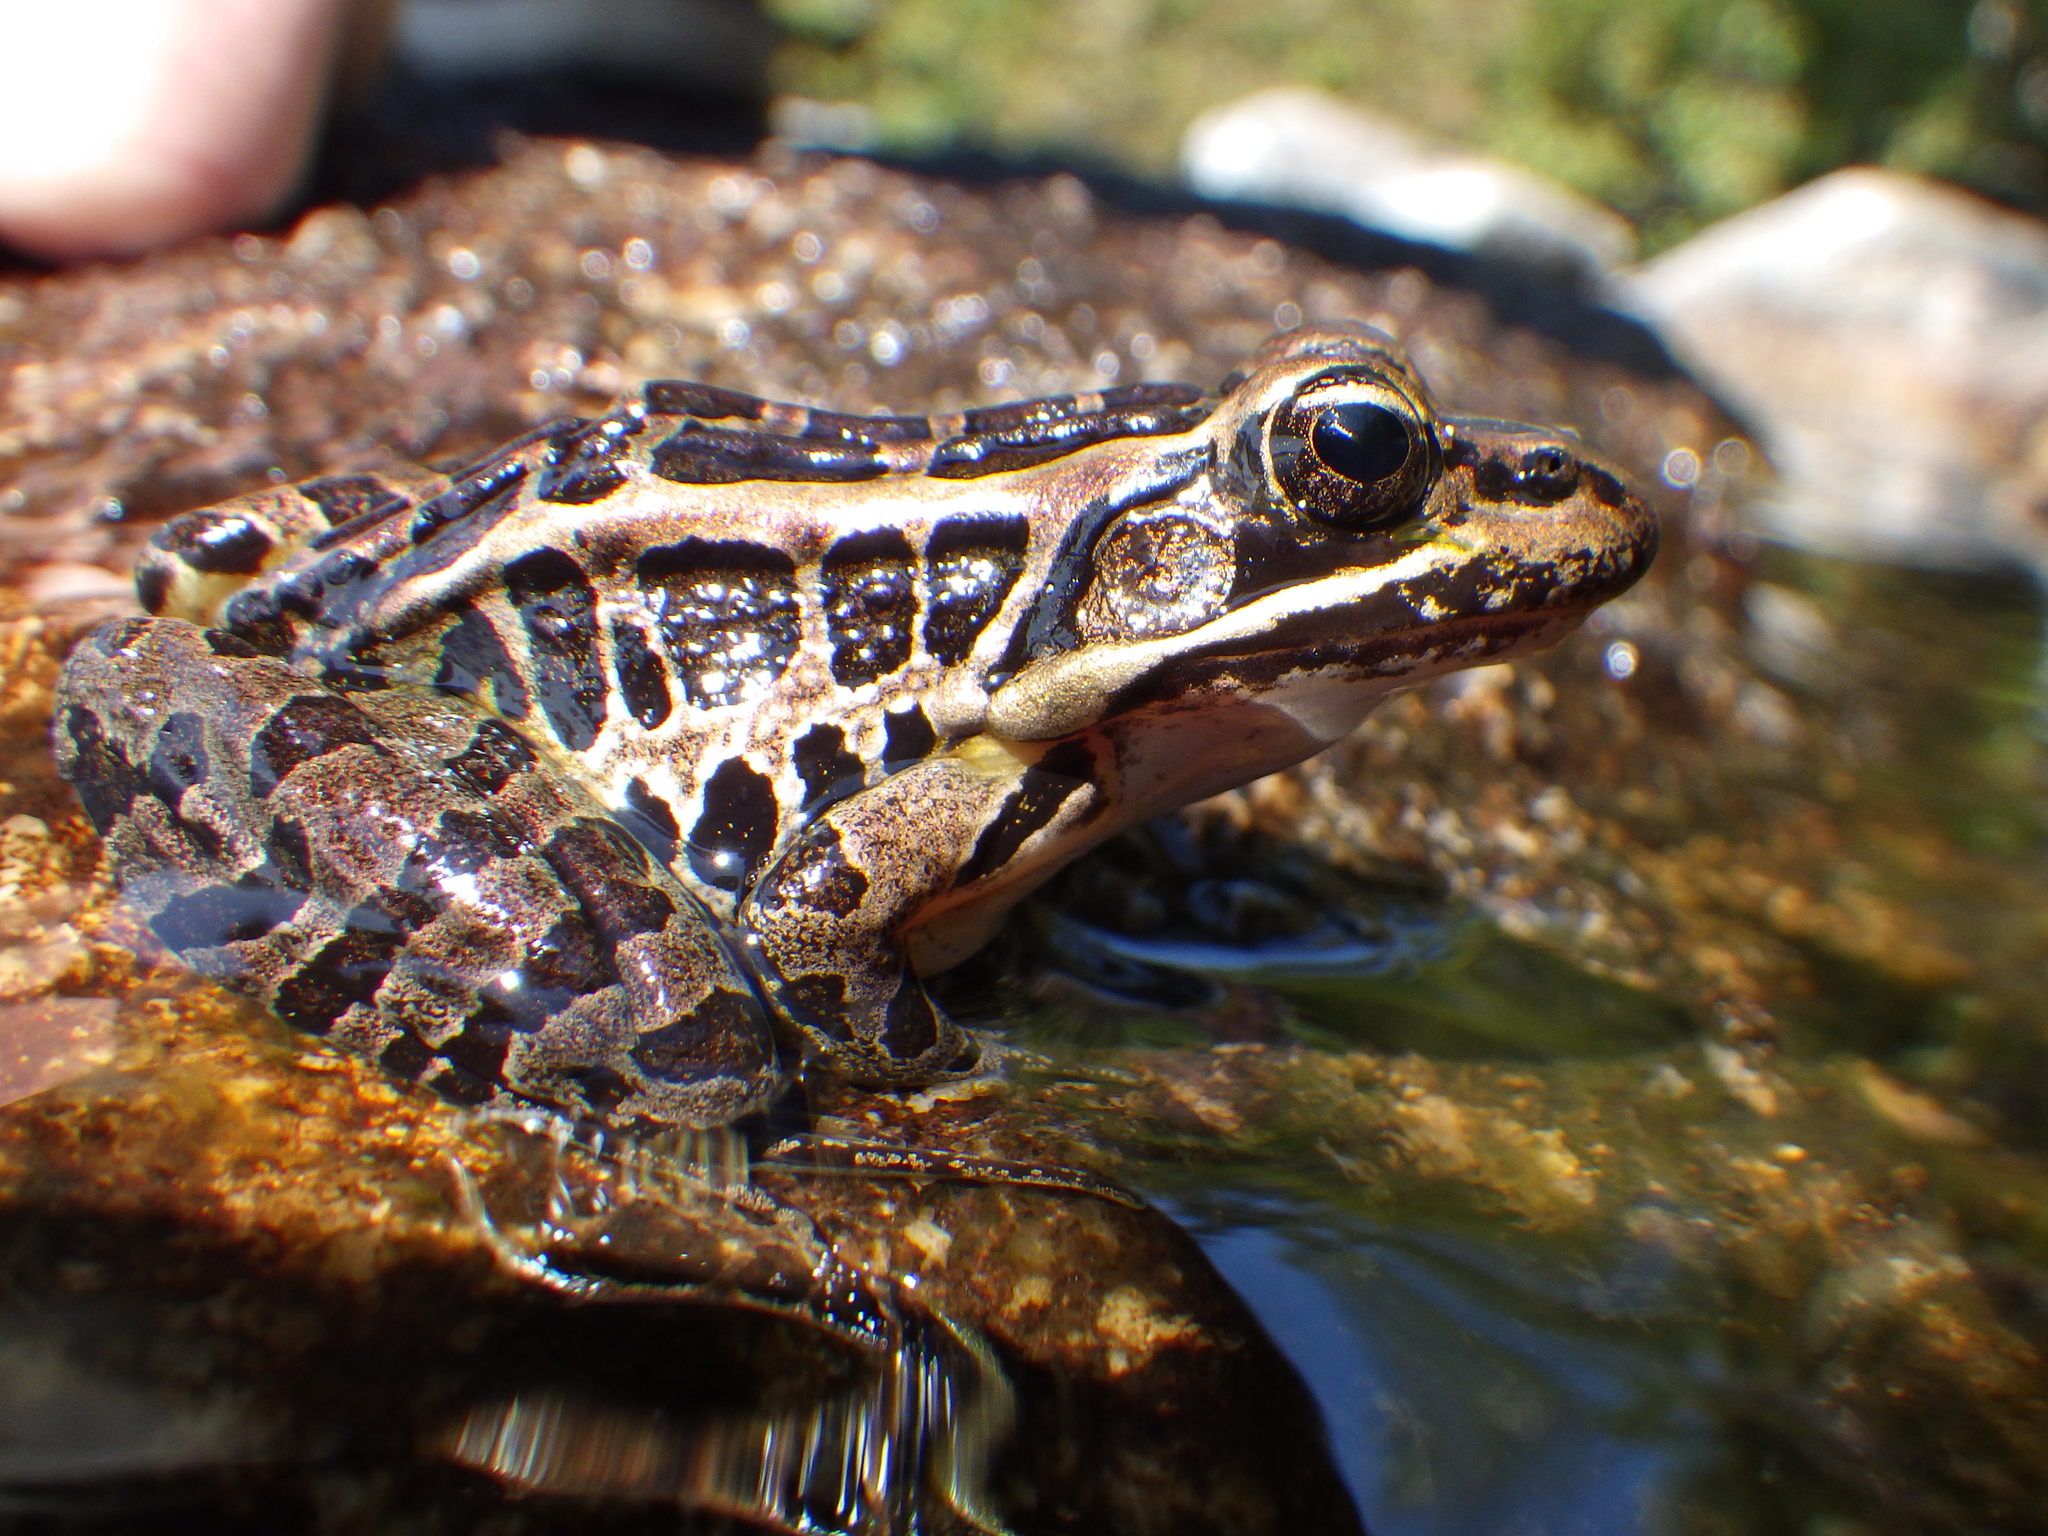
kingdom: Animalia
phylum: Chordata
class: Amphibia
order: Anura
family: Ranidae
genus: Lithobates
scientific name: Lithobates palustris
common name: Pickerel frog
